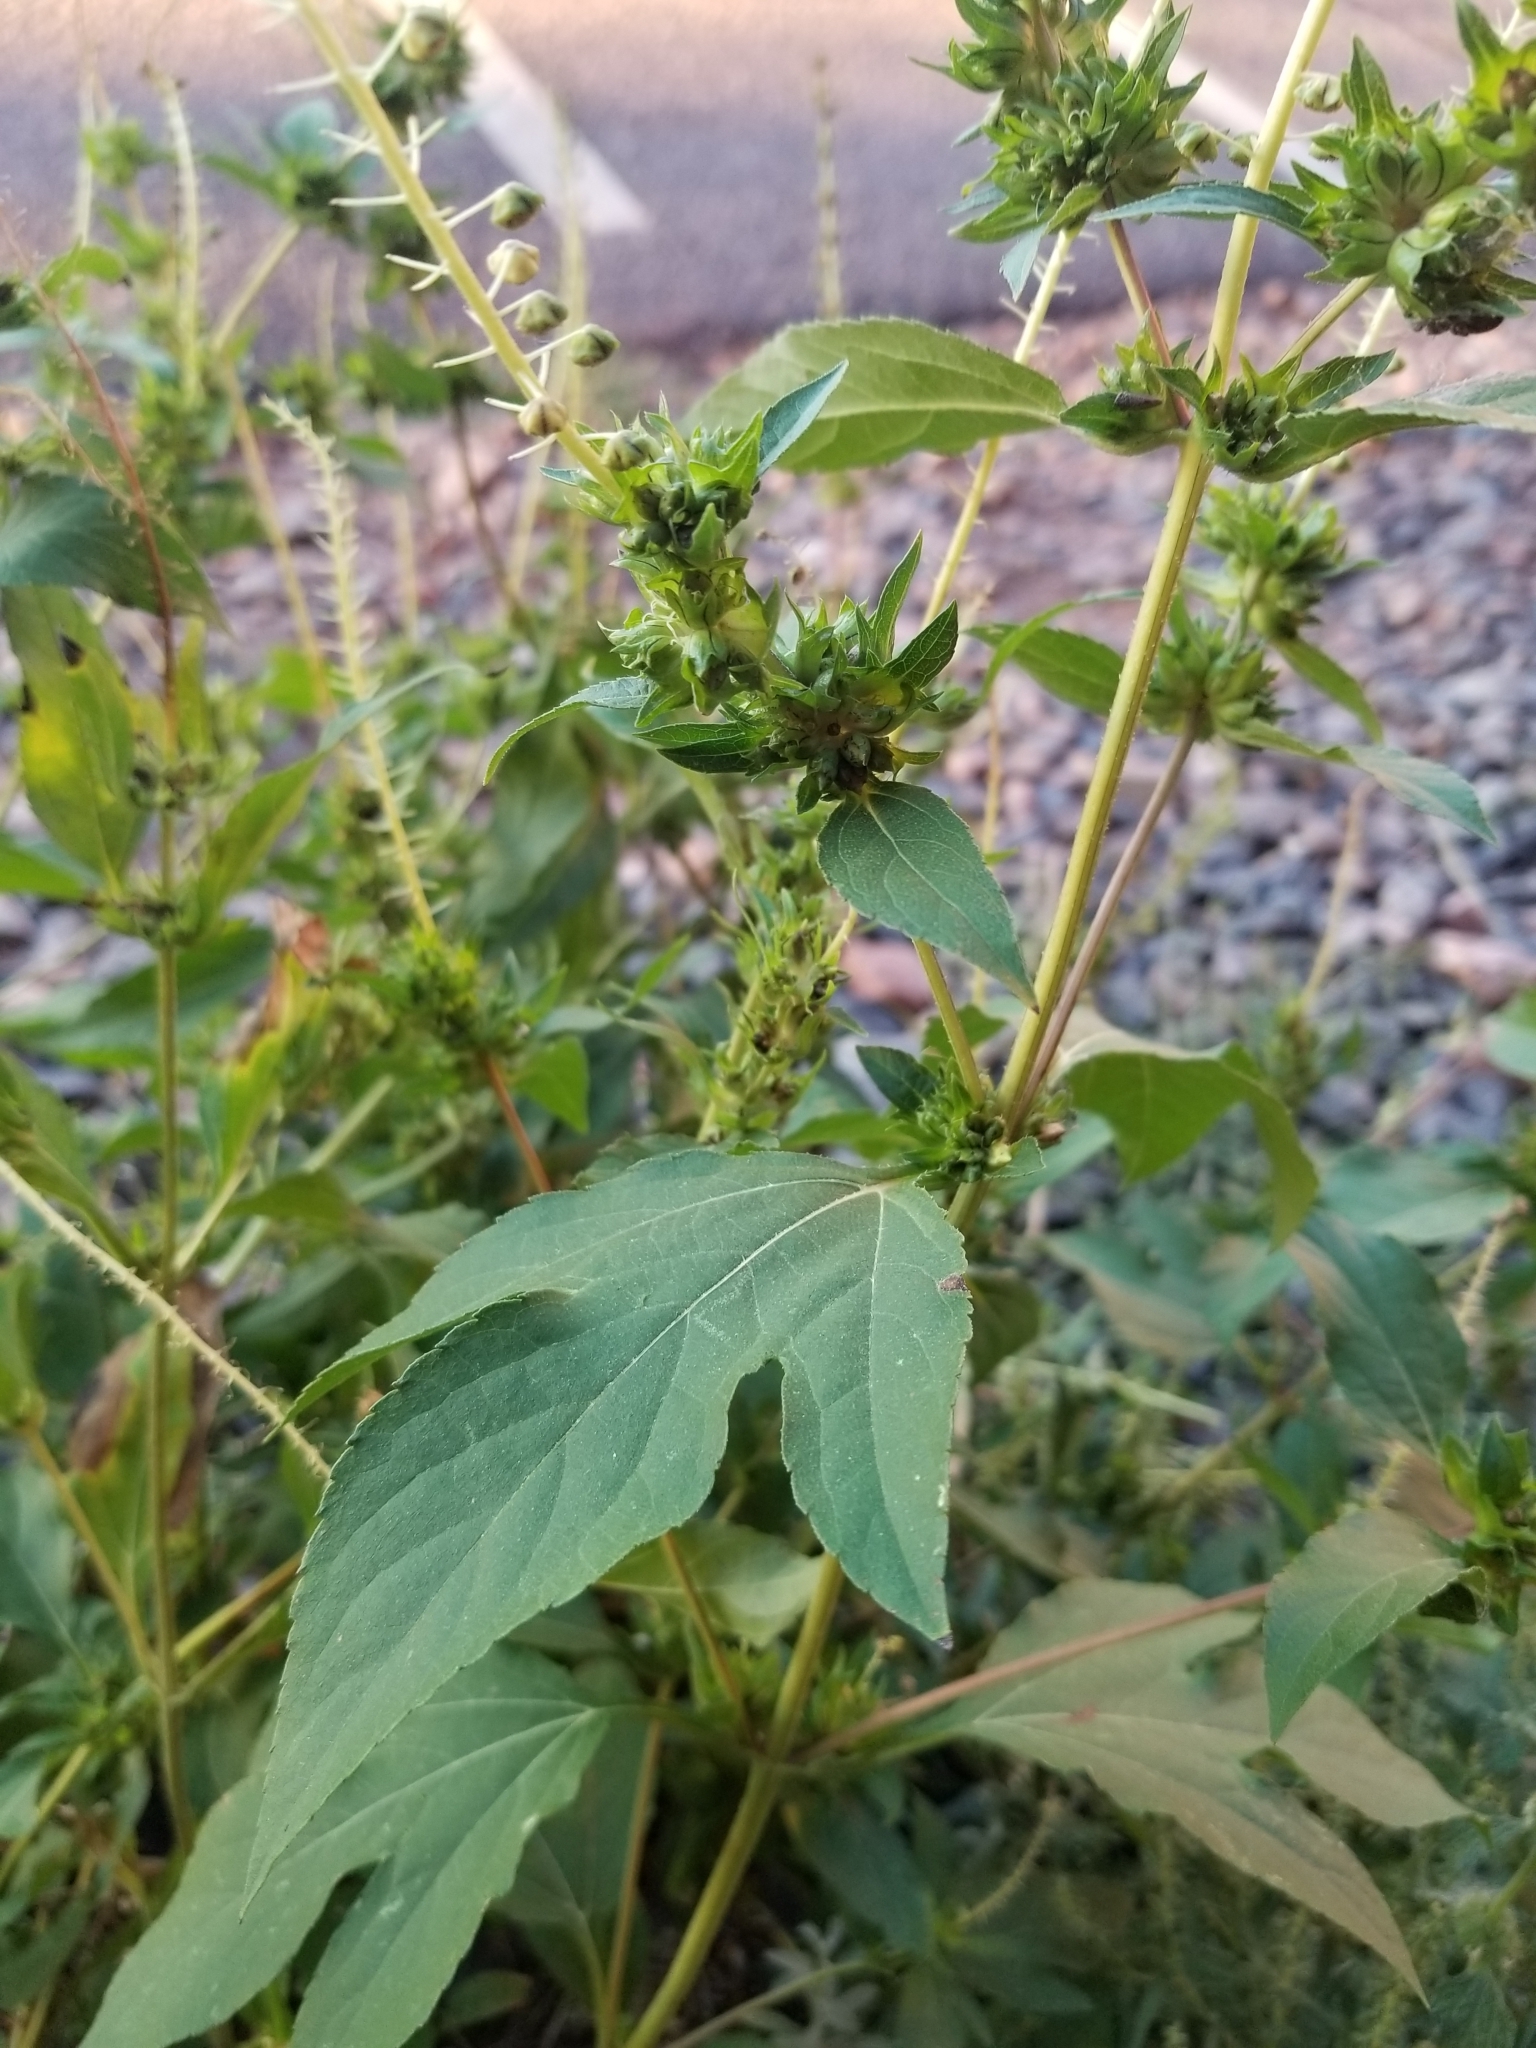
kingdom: Plantae
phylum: Tracheophyta
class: Magnoliopsida
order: Asterales
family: Asteraceae
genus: Ambrosia
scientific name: Ambrosia trifida
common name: Giant ragweed
